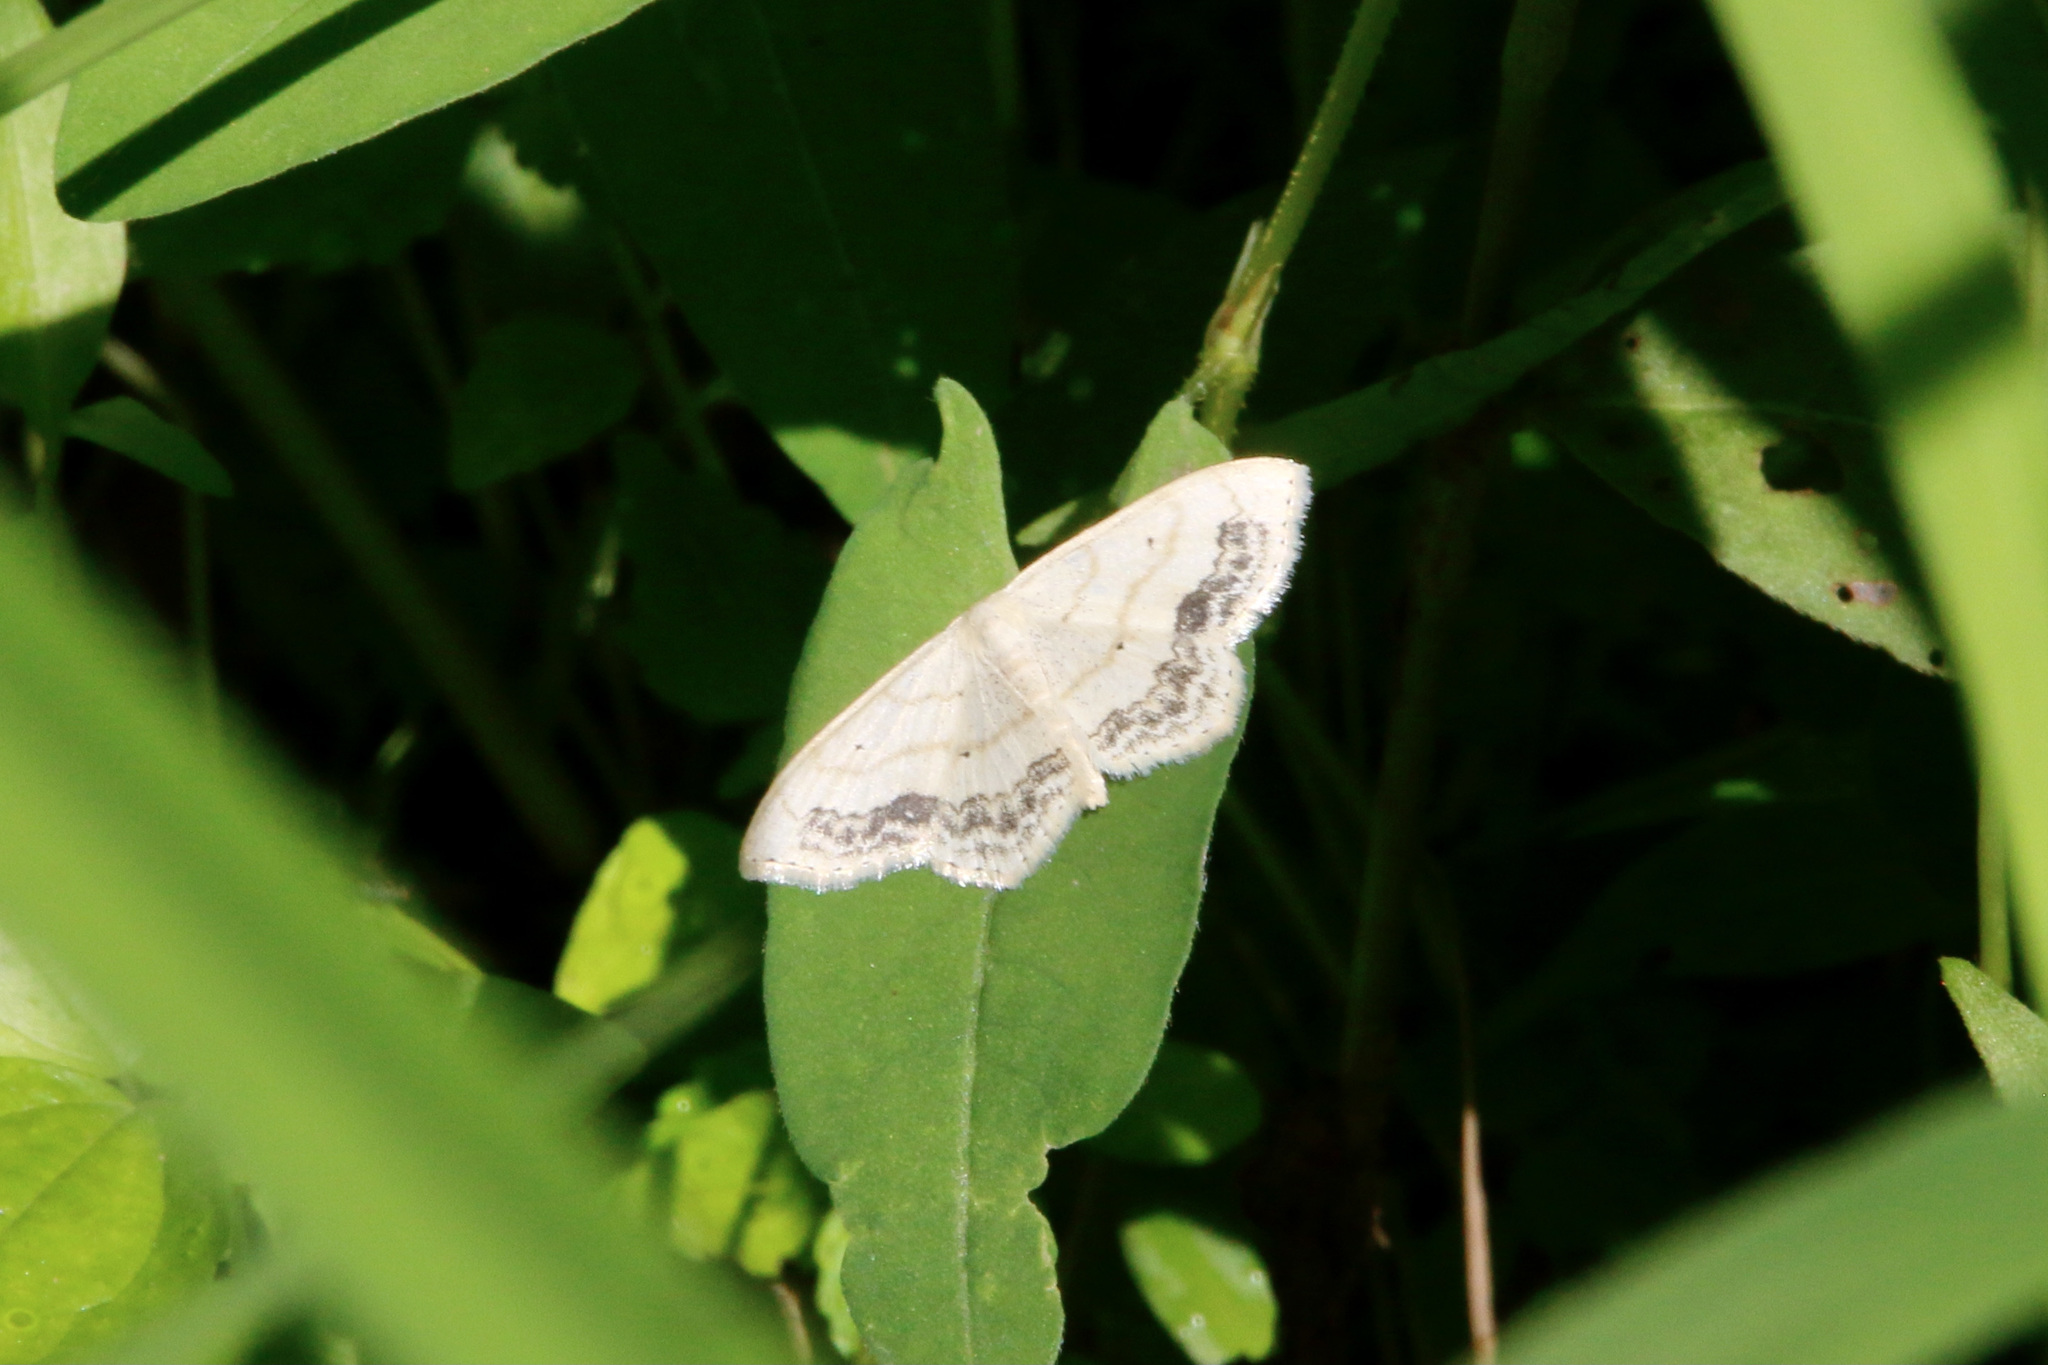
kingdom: Animalia
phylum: Arthropoda
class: Insecta
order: Lepidoptera
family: Geometridae
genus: Scopula
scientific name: Scopula limboundata
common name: Large lace border
